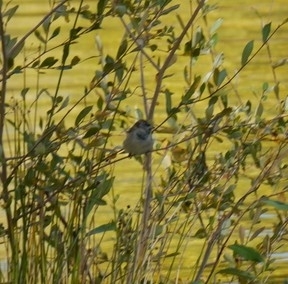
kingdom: Animalia
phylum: Chordata
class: Aves
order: Passeriformes
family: Passeridae
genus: Passer
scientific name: Passer domesticus
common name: House sparrow
